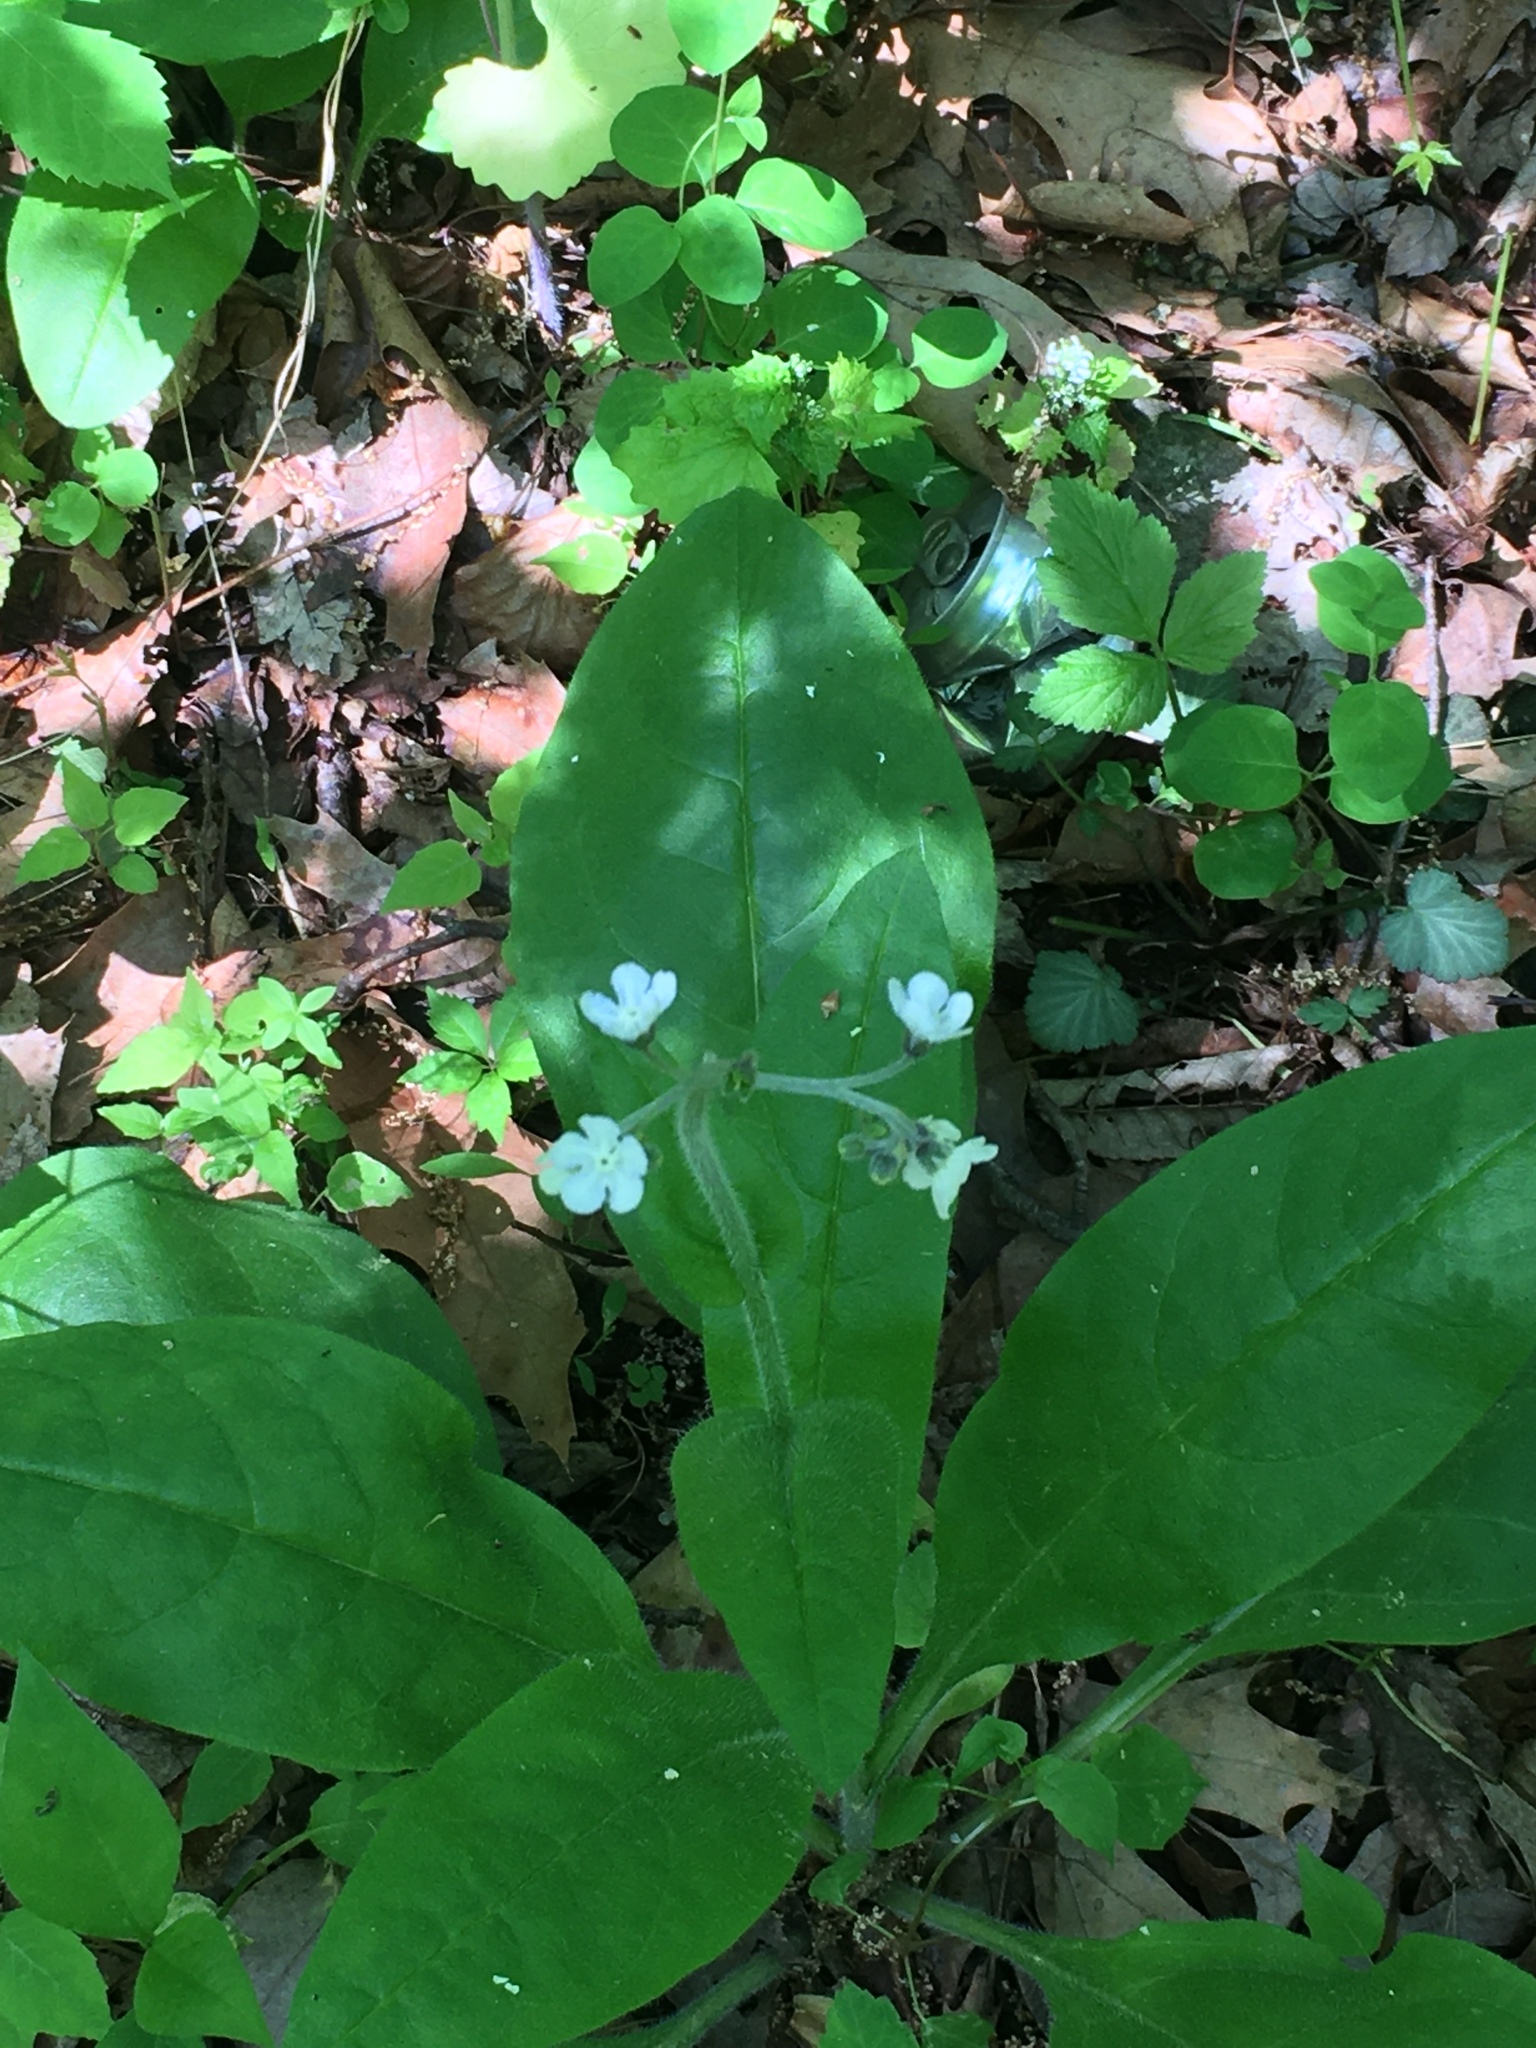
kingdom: Plantae
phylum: Tracheophyta
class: Magnoliopsida
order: Boraginales
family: Boraginaceae
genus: Andersonglossum
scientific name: Andersonglossum virginianum
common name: Wild comfrey
